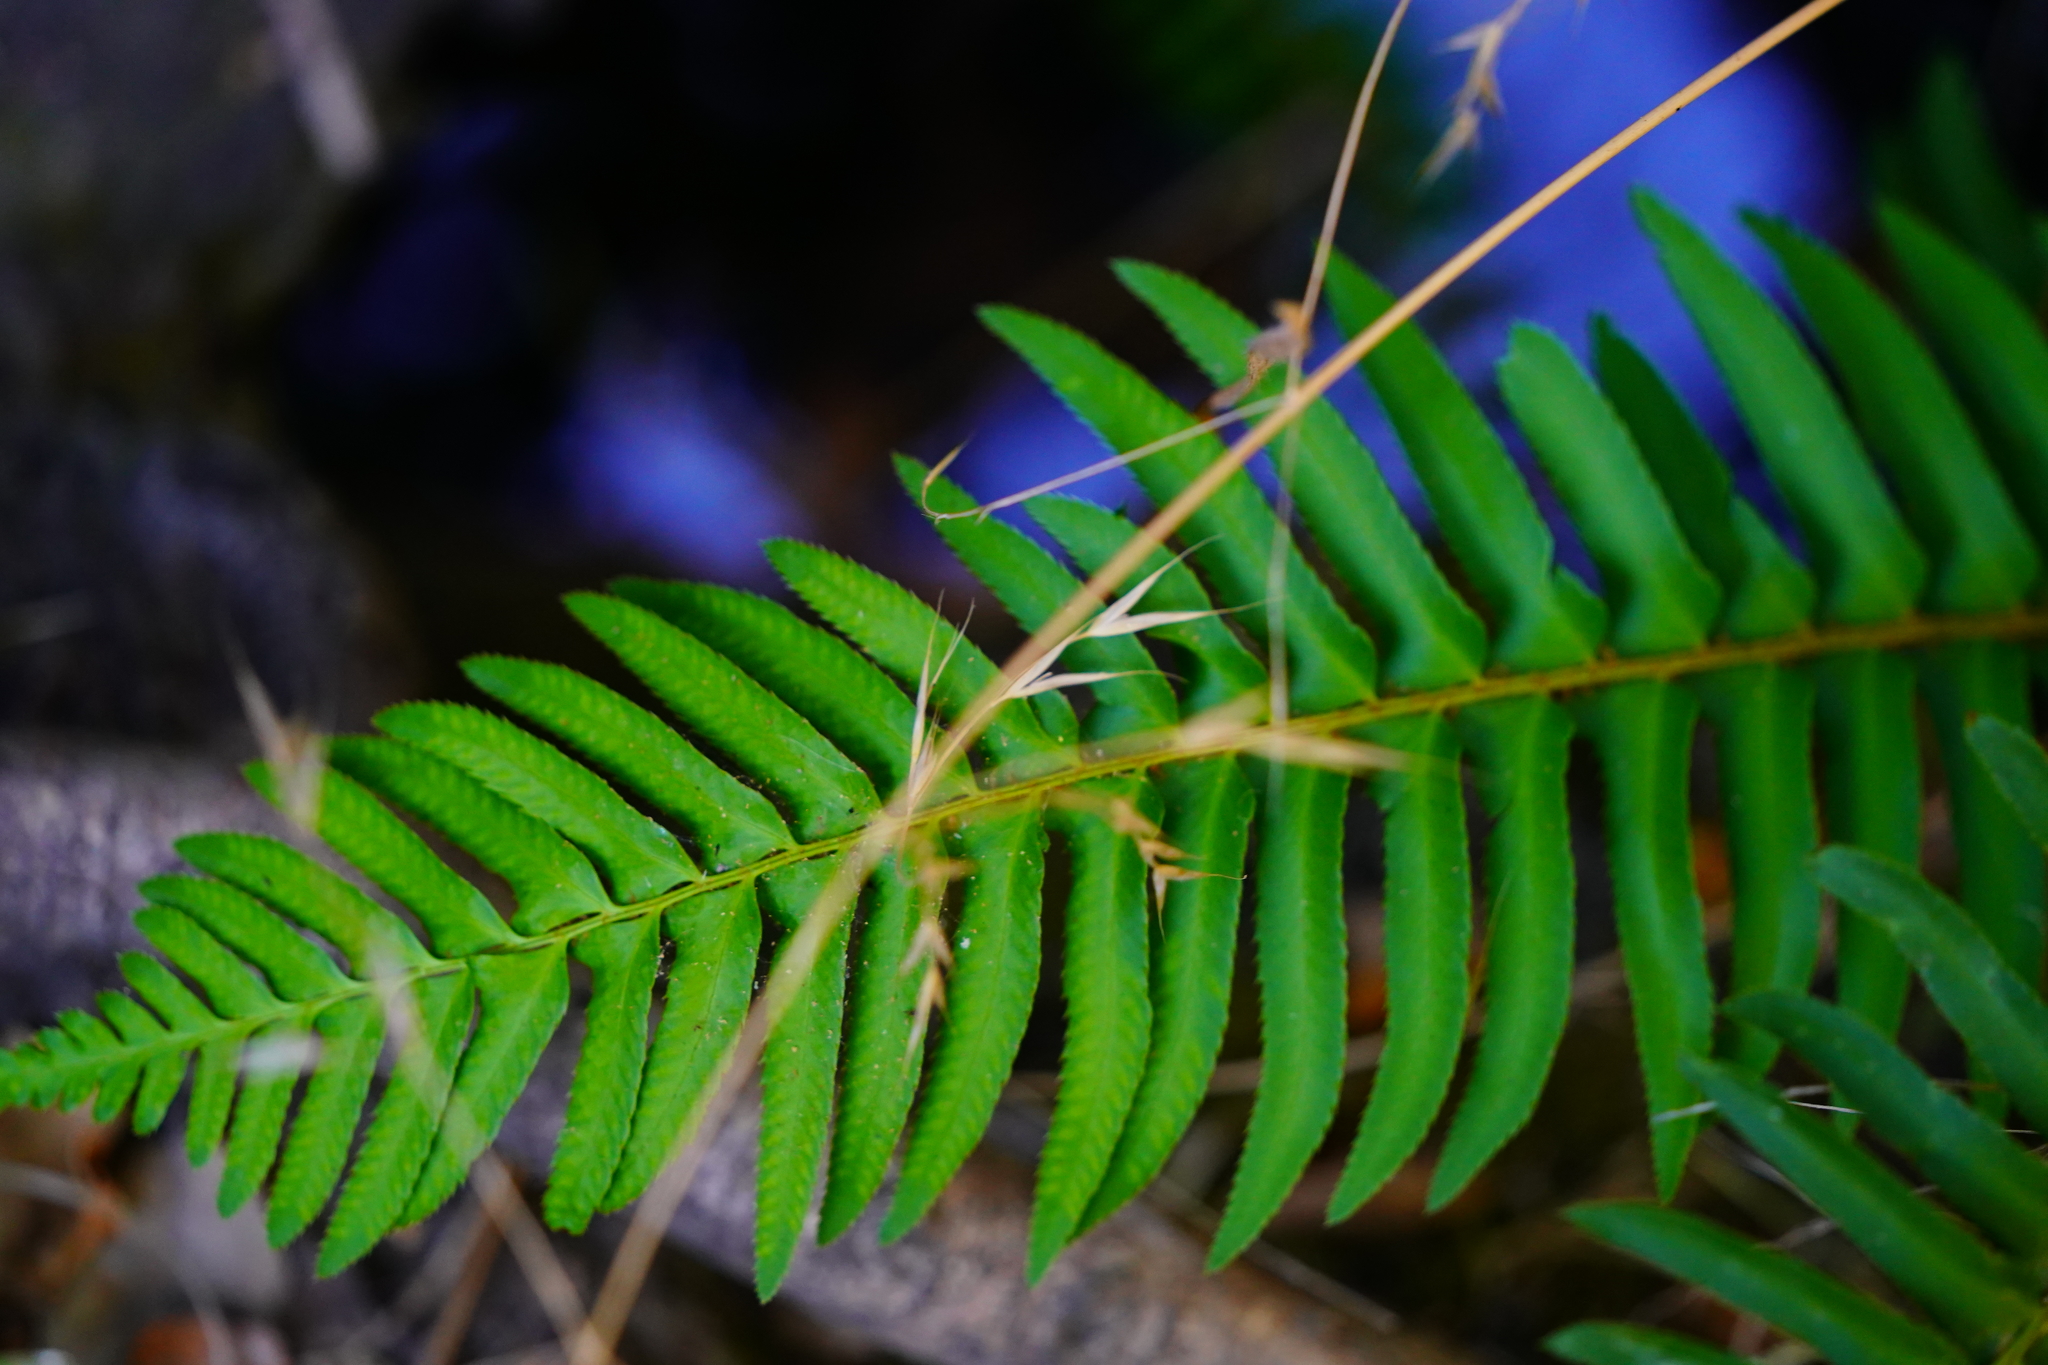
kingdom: Plantae
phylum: Tracheophyta
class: Polypodiopsida
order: Polypodiales
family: Dryopteridaceae
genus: Polystichum
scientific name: Polystichum munitum
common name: Western sword-fern
